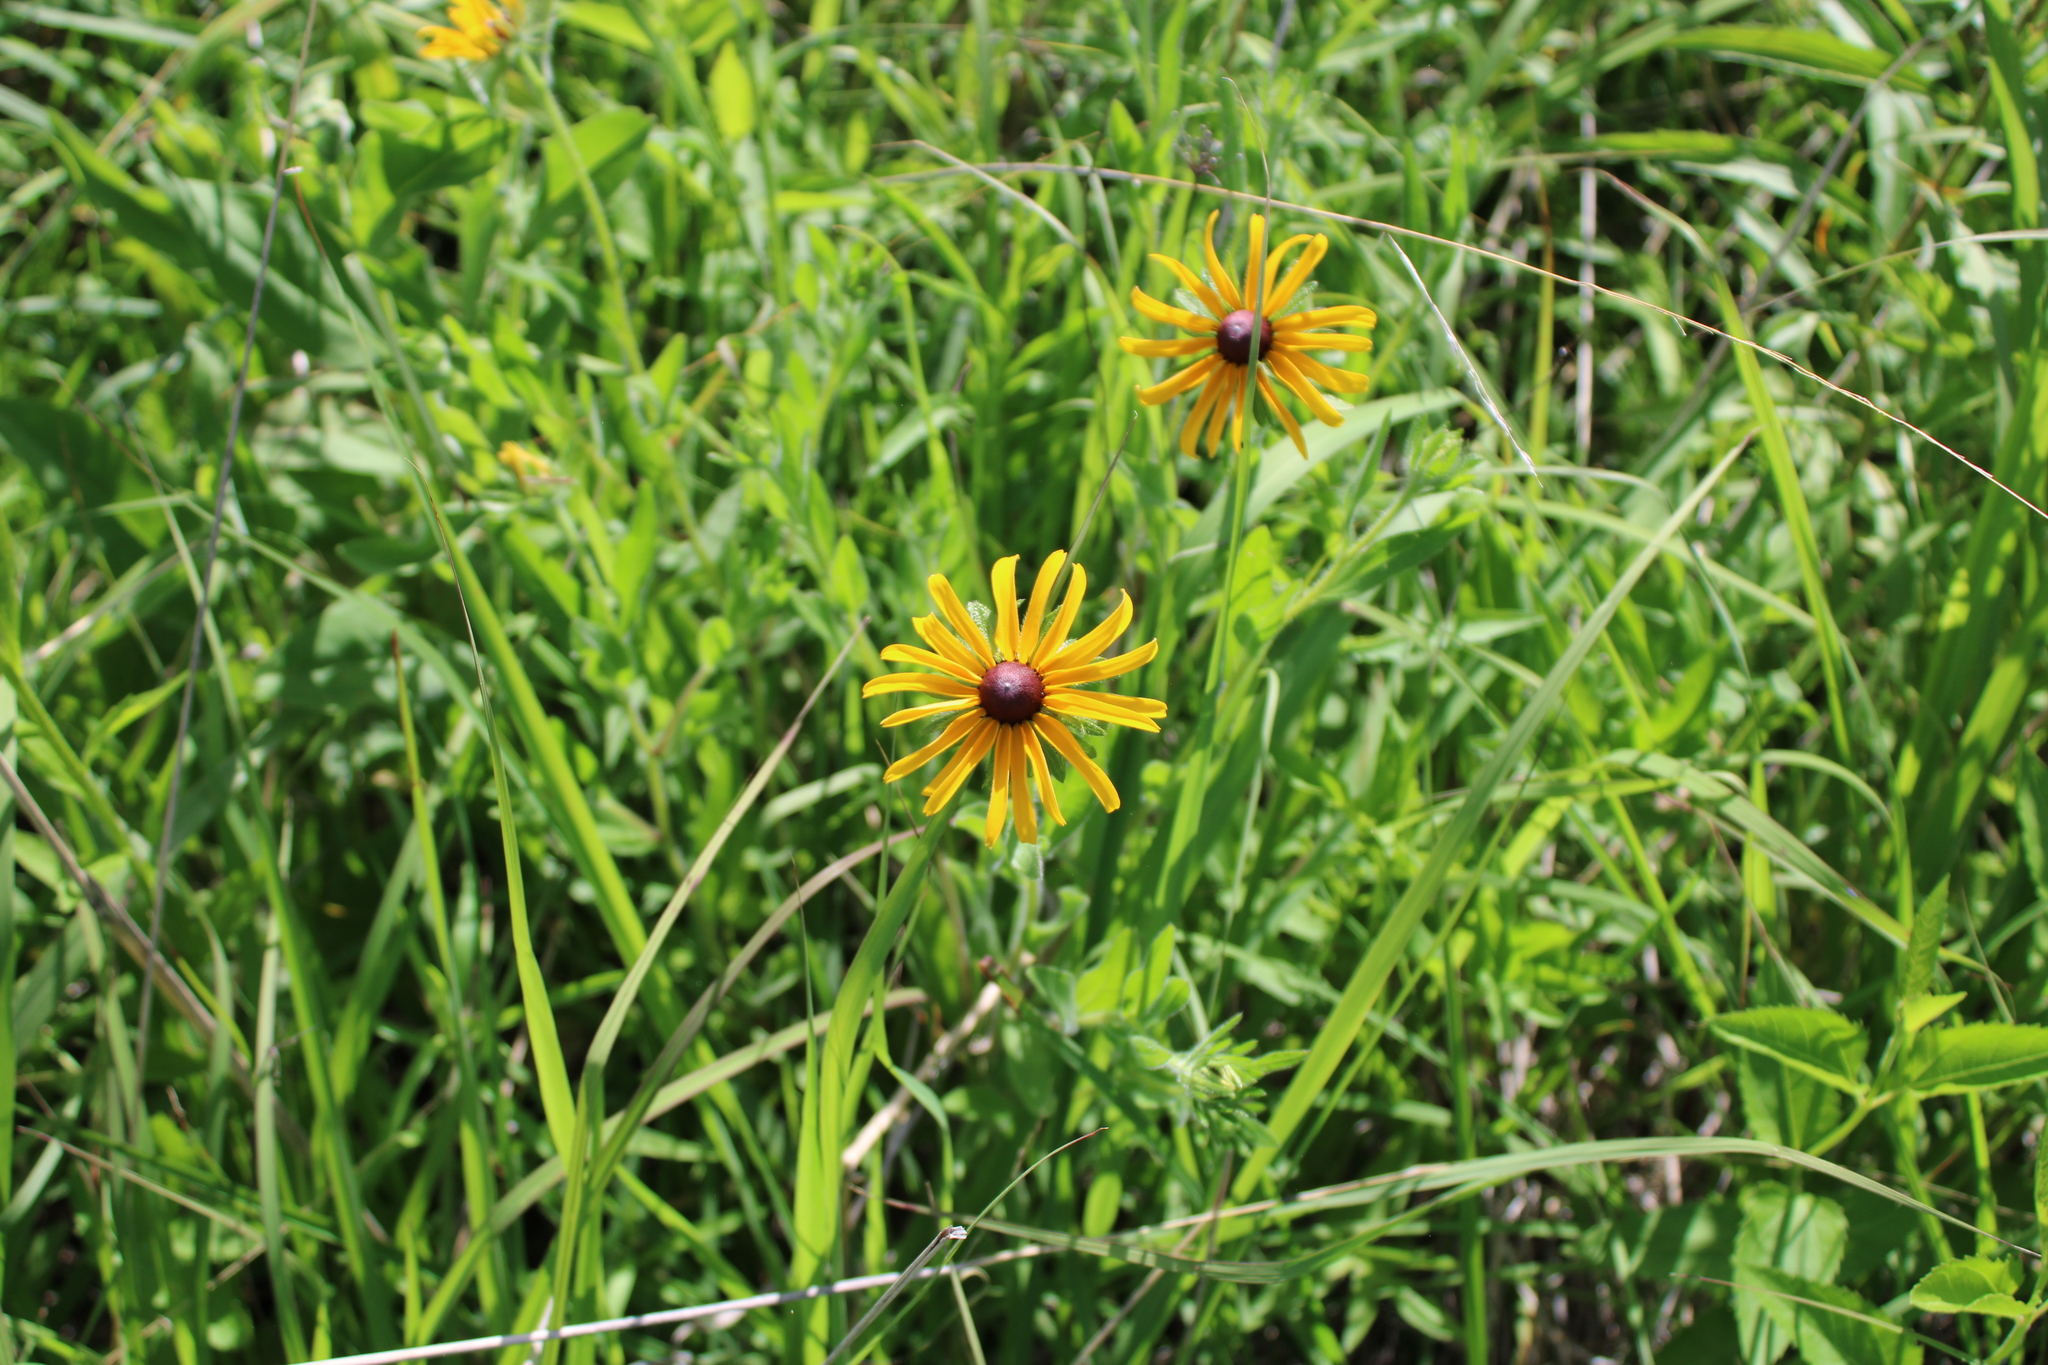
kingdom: Plantae
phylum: Tracheophyta
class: Magnoliopsida
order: Asterales
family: Asteraceae
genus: Rudbeckia
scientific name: Rudbeckia hirta
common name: Black-eyed-susan
